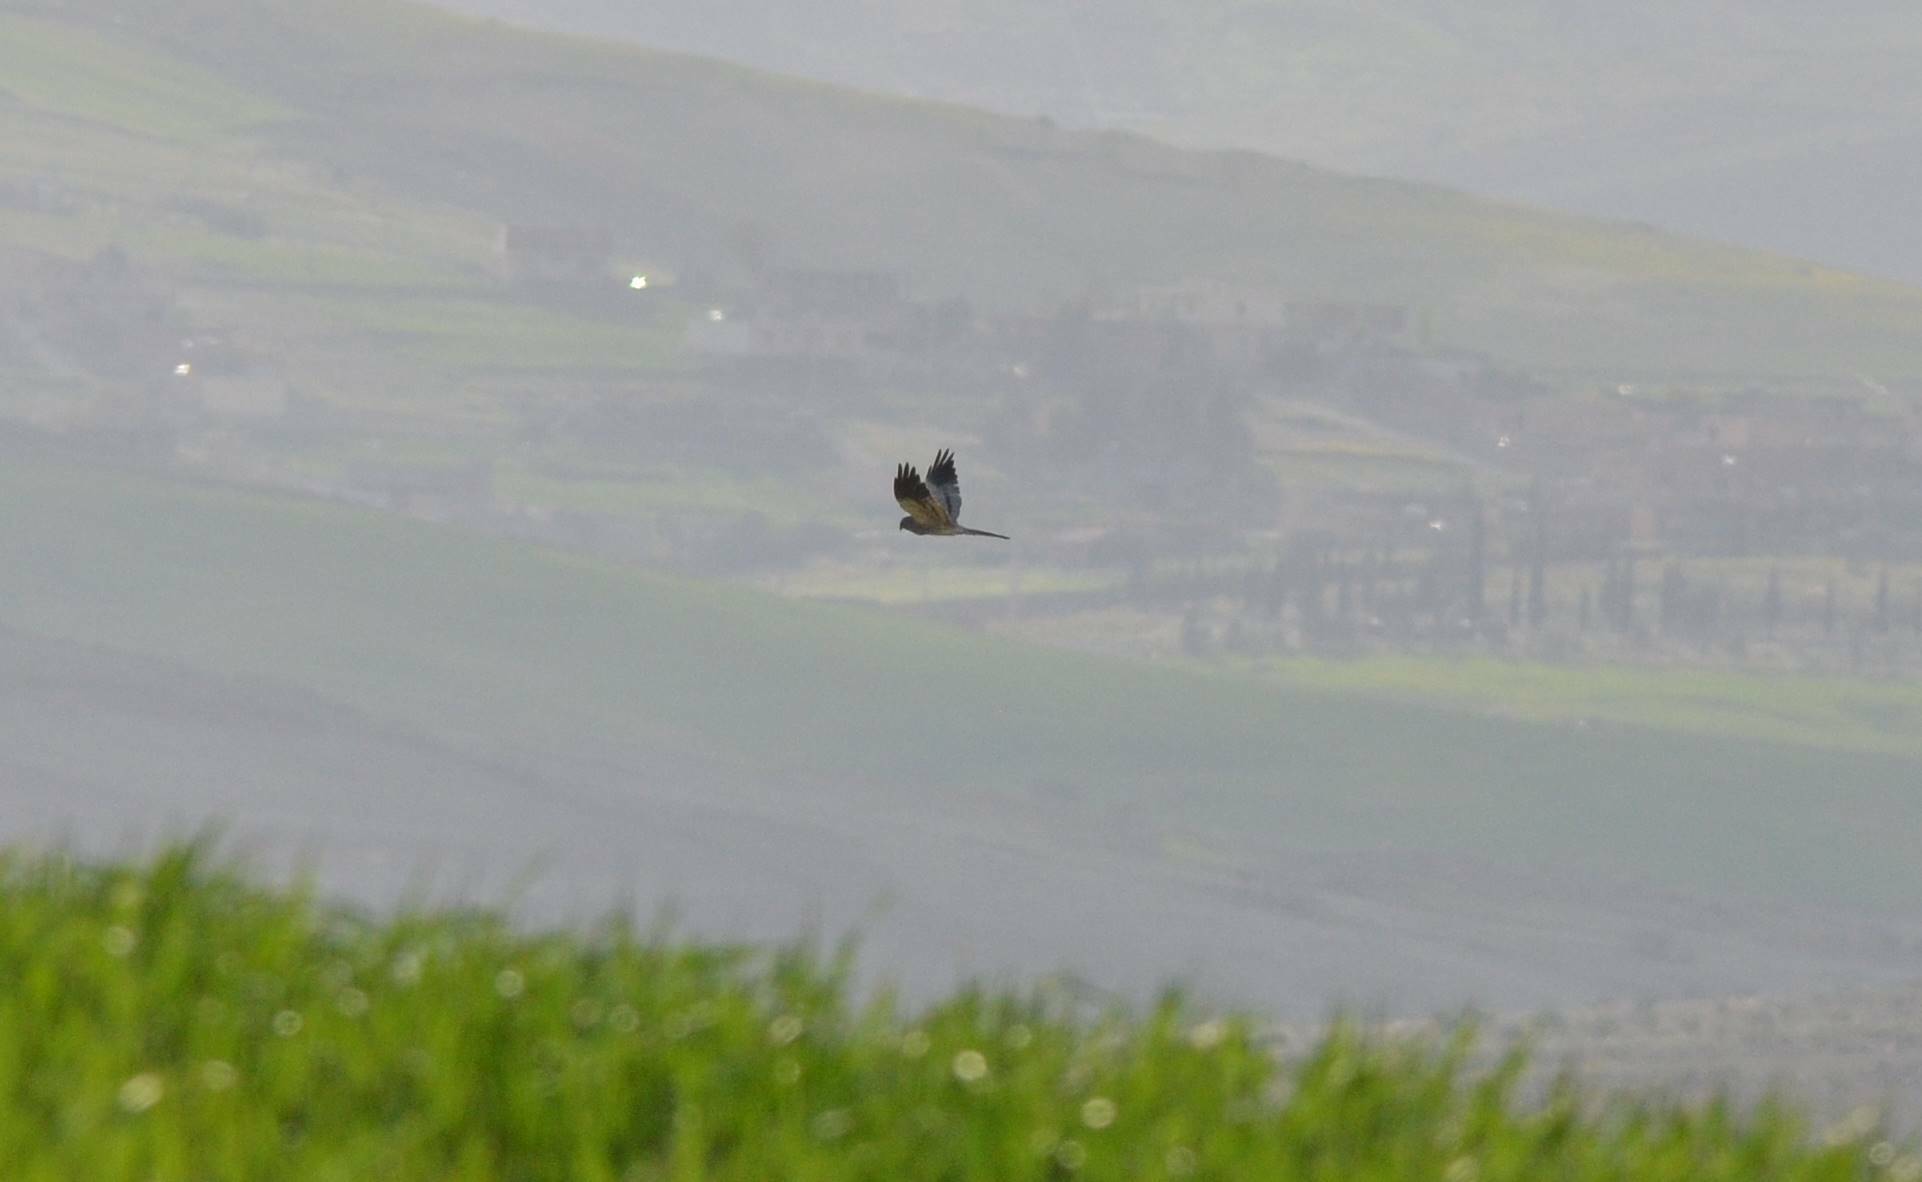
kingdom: Animalia
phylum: Chordata
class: Aves
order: Accipitriformes
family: Accipitridae
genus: Circus
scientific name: Circus pygargus
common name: Montagu's harrier
